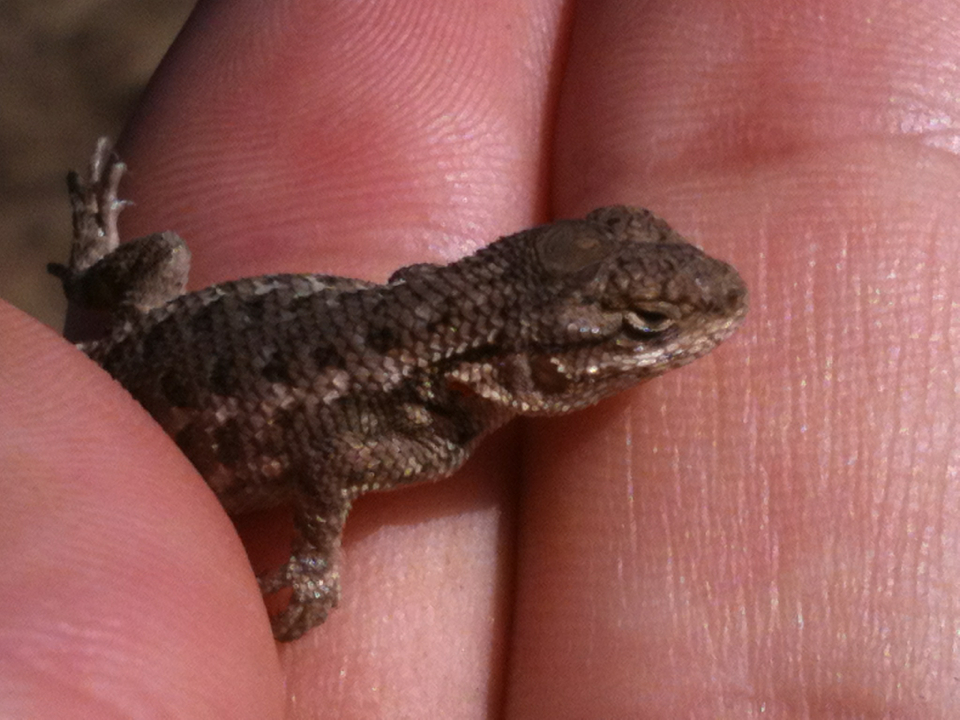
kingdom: Animalia
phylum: Chordata
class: Squamata
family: Phrynosomatidae
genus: Sceloporus
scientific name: Sceloporus occidentalis
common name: Western fence lizard
